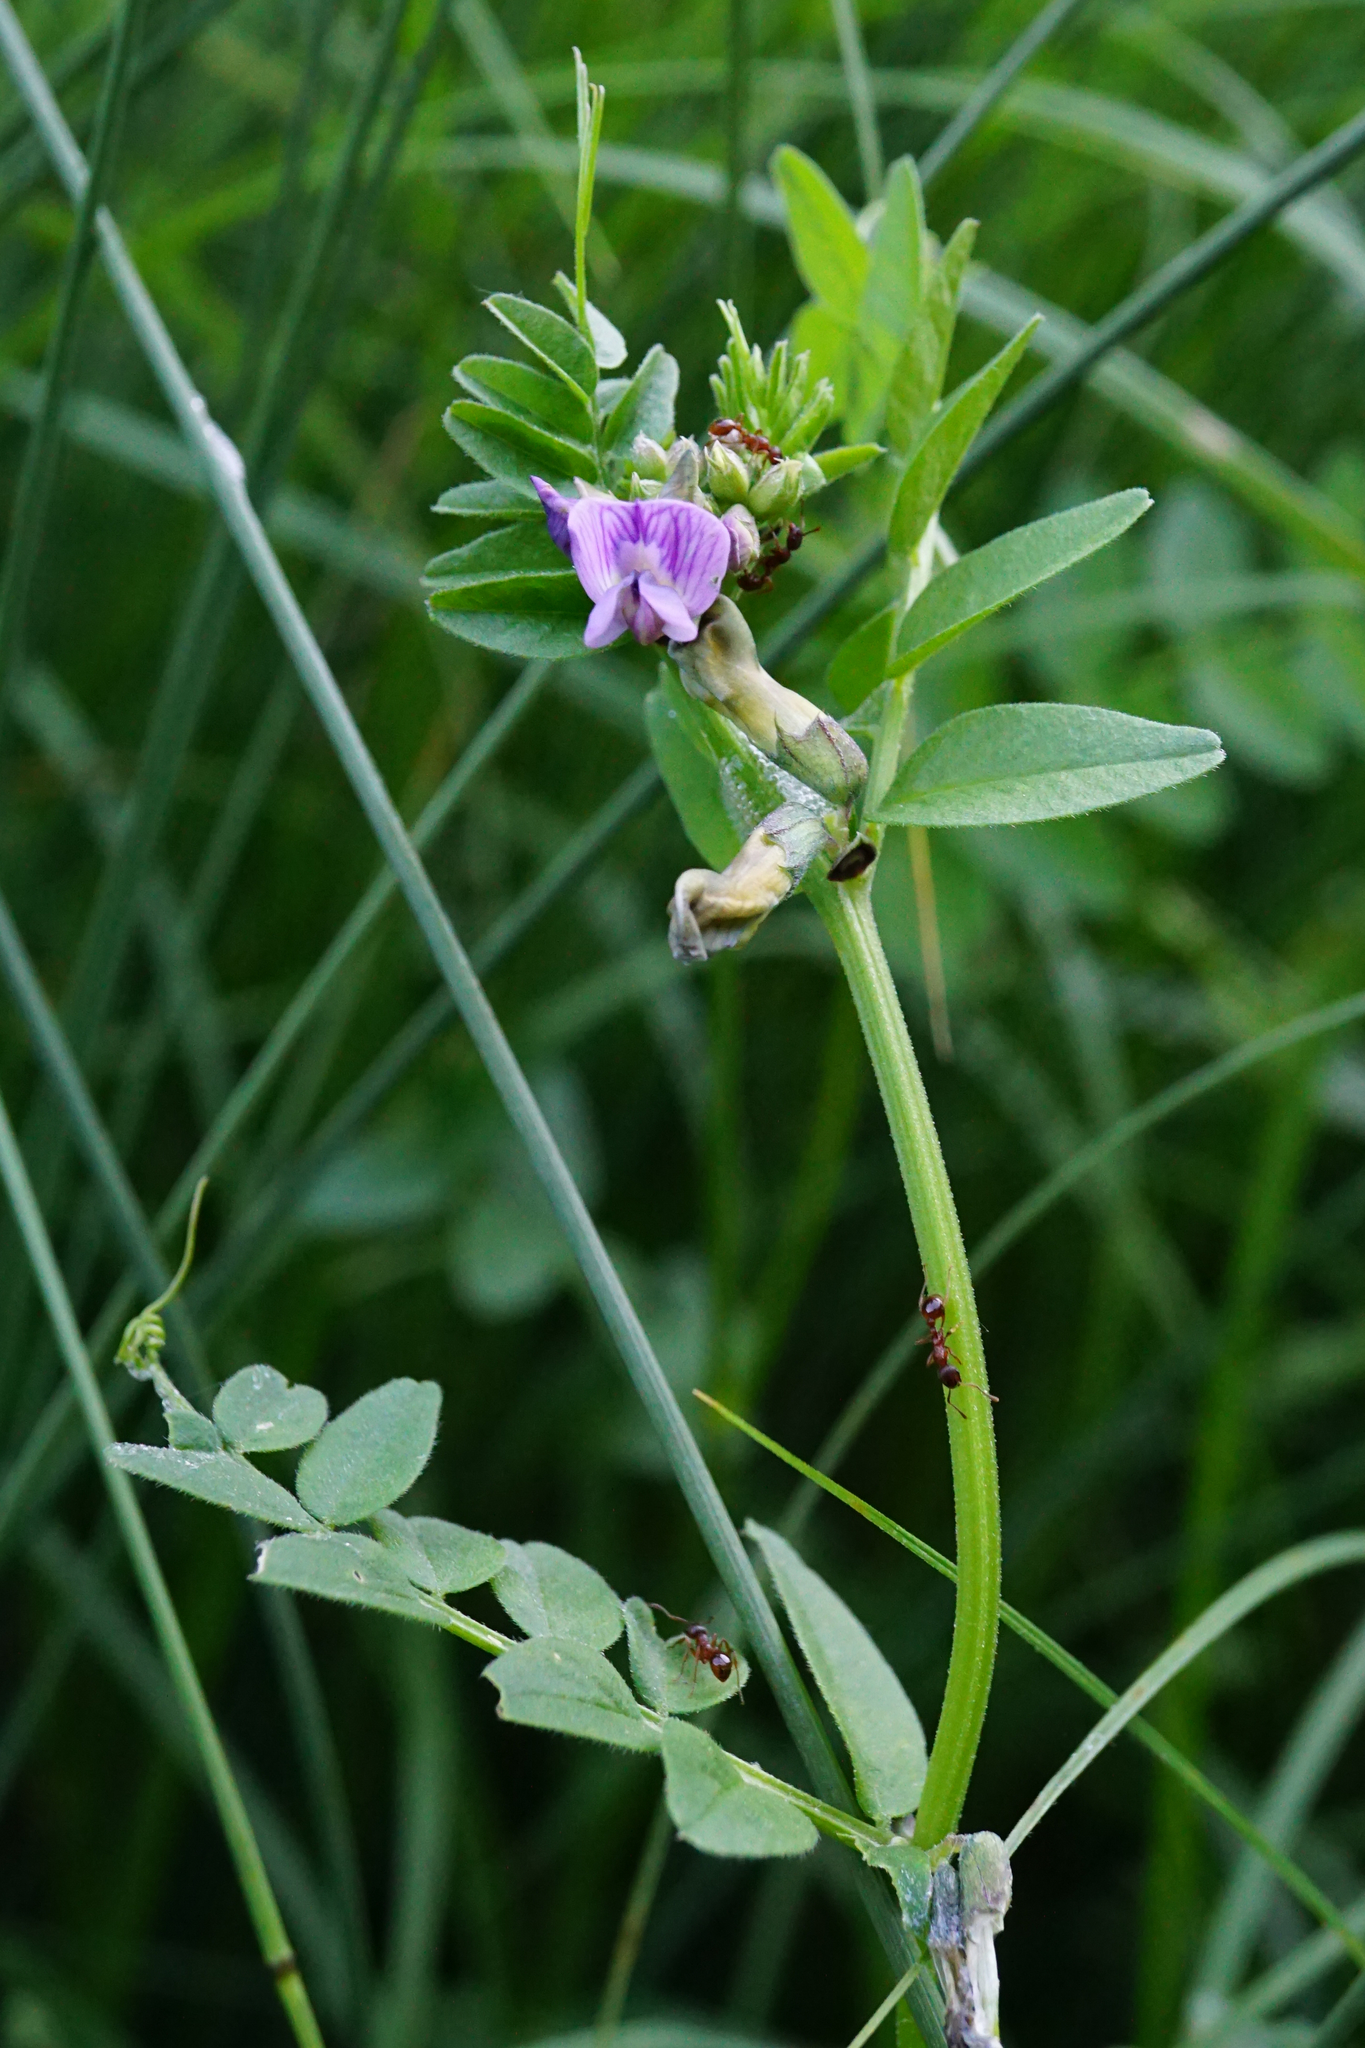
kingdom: Plantae
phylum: Tracheophyta
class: Magnoliopsida
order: Fabales
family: Fabaceae
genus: Vicia
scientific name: Vicia sepium
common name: Bush vetch
